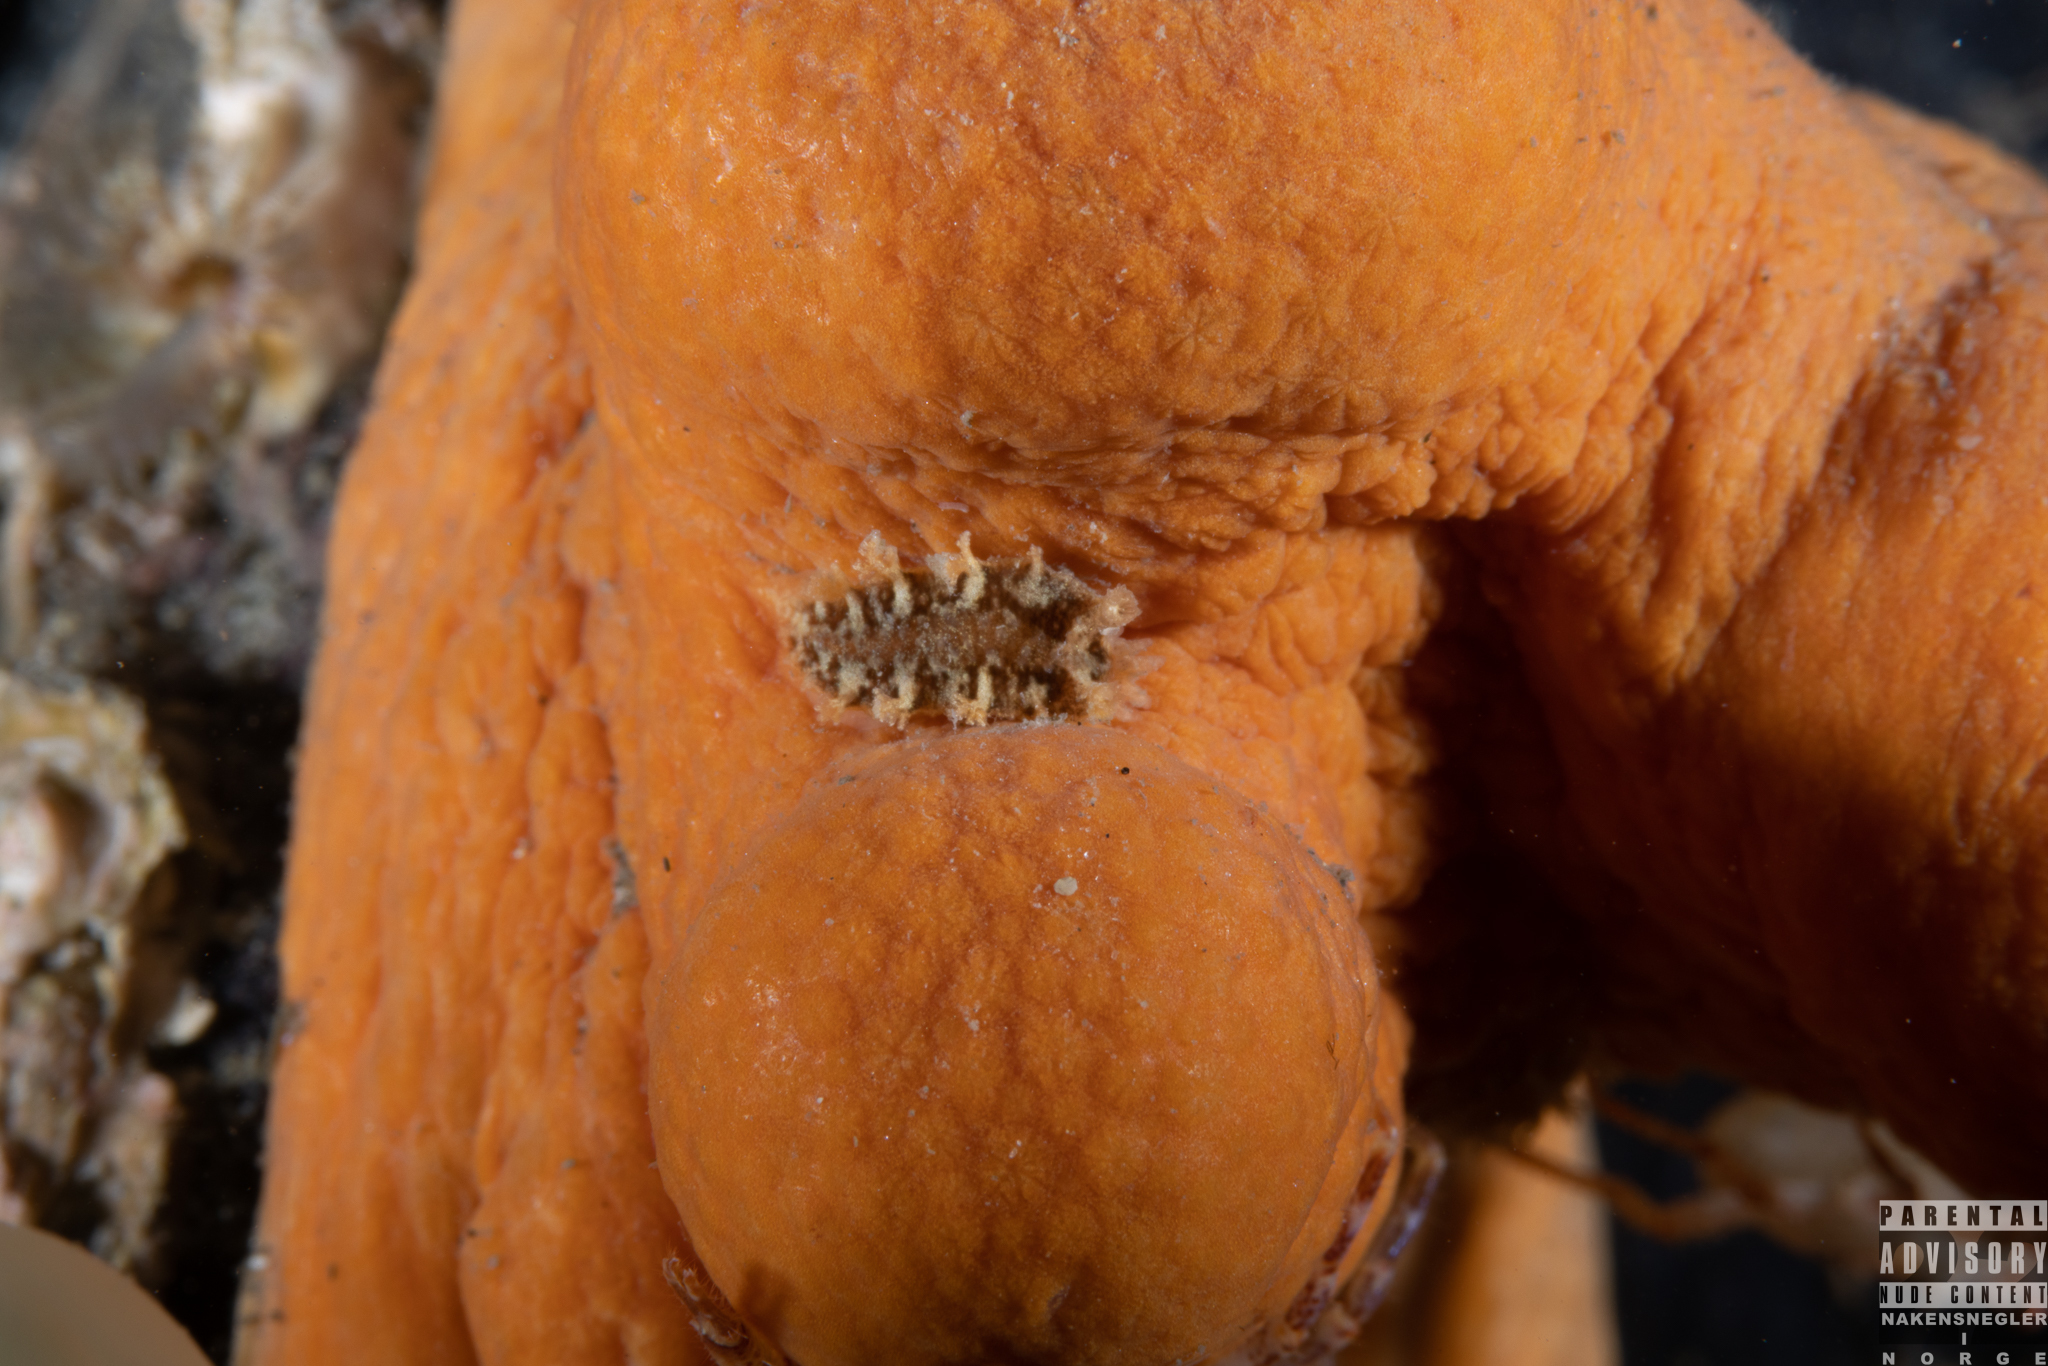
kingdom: Animalia
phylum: Mollusca
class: Gastropoda
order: Nudibranchia
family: Tritoniidae
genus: Tritonia
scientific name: Tritonia hombergii
